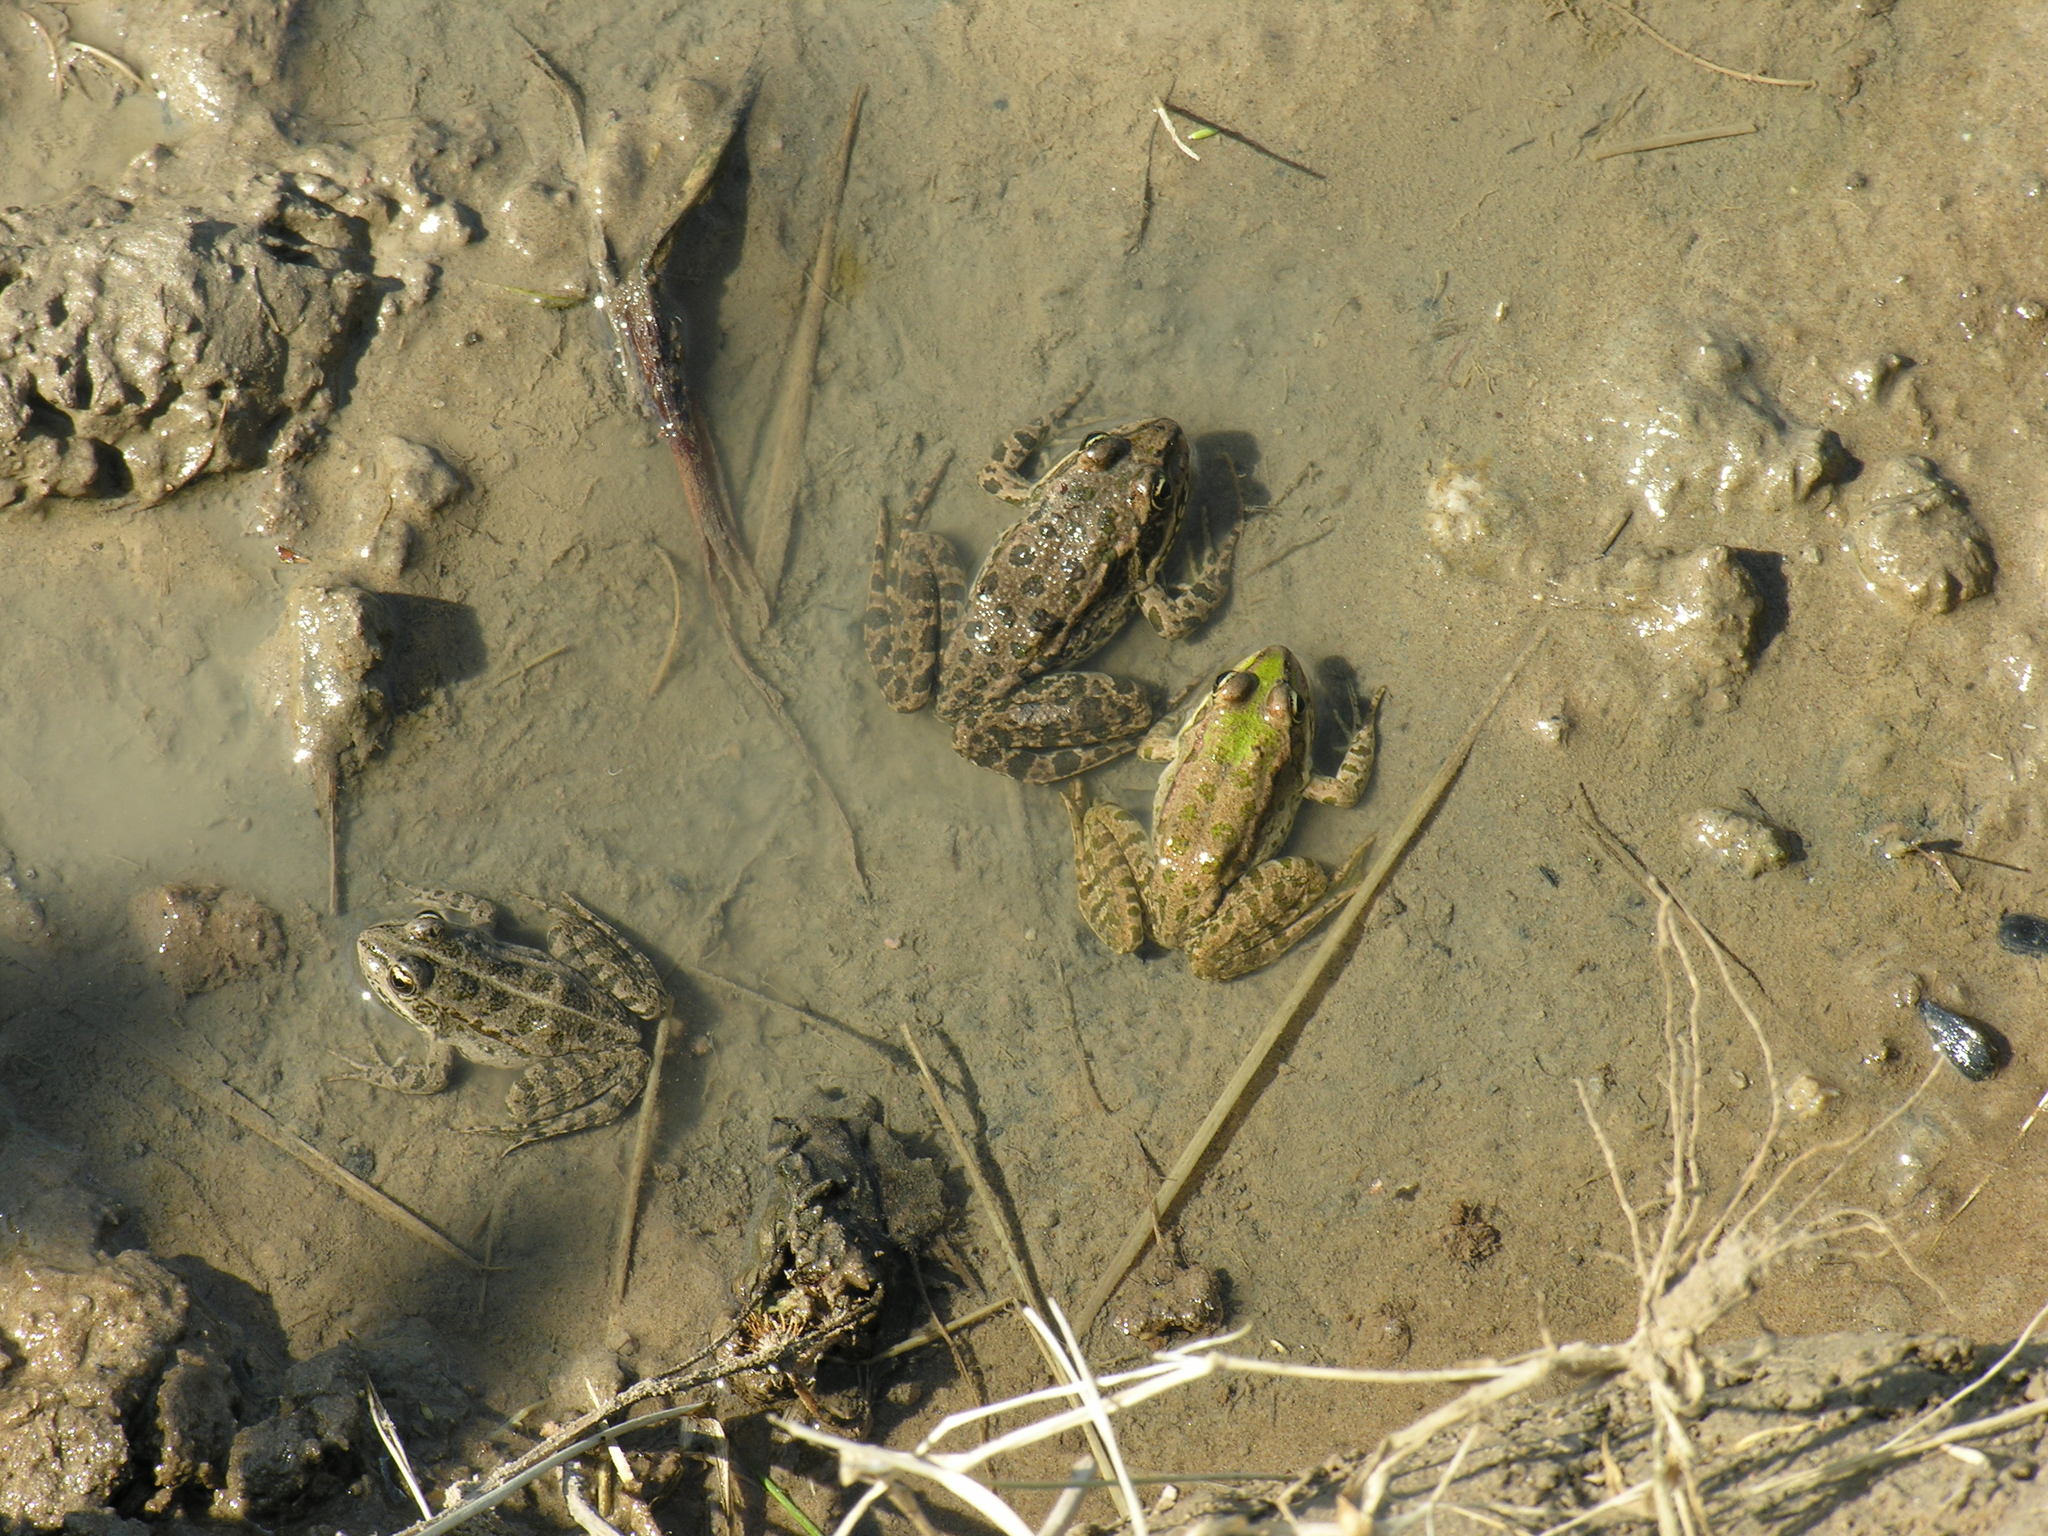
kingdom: Animalia
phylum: Chordata
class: Amphibia
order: Anura
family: Ranidae
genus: Pelophylax
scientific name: Pelophylax ridibundus
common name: Marsh frog
